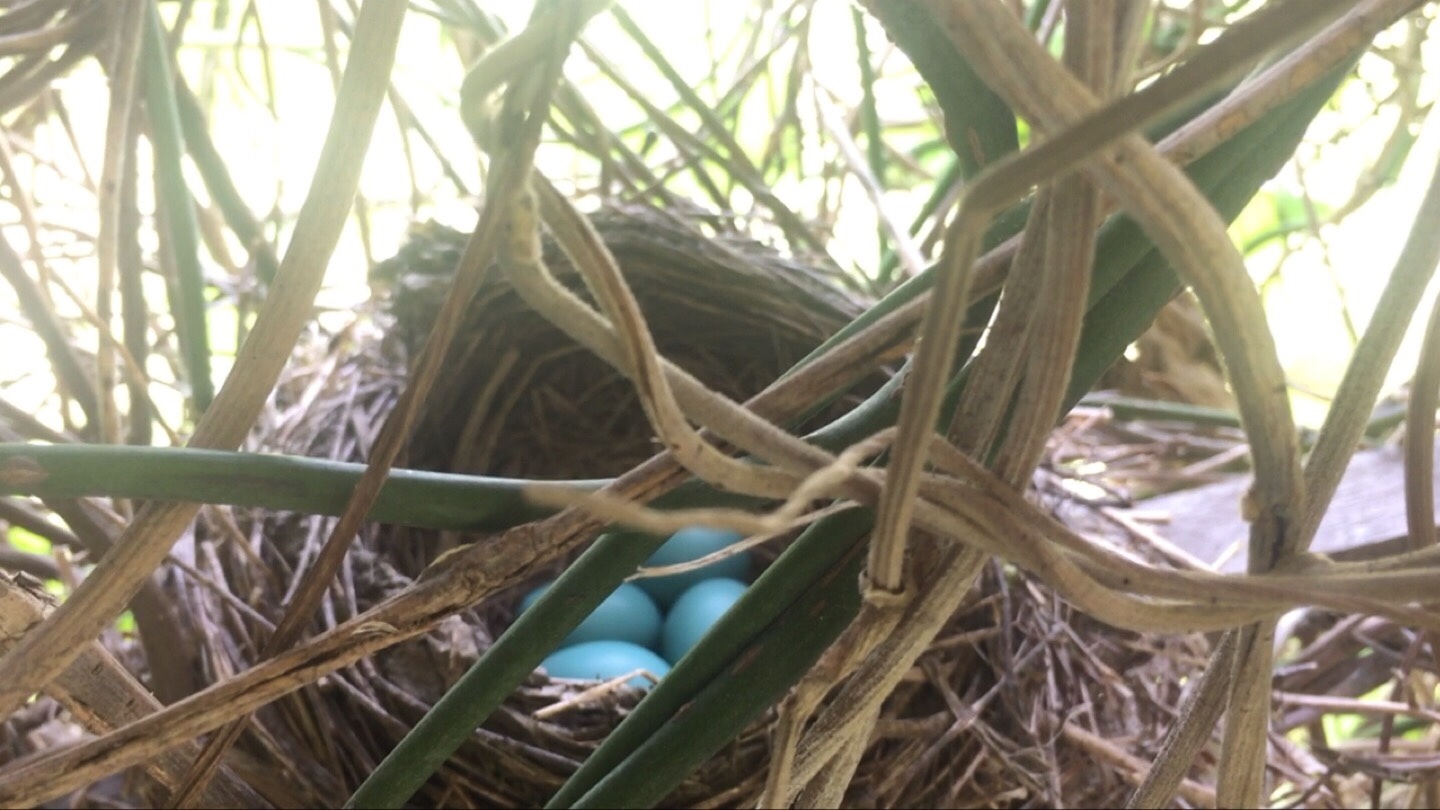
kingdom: Animalia
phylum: Chordata
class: Aves
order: Passeriformes
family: Turdidae
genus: Turdus
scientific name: Turdus migratorius
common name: American robin
